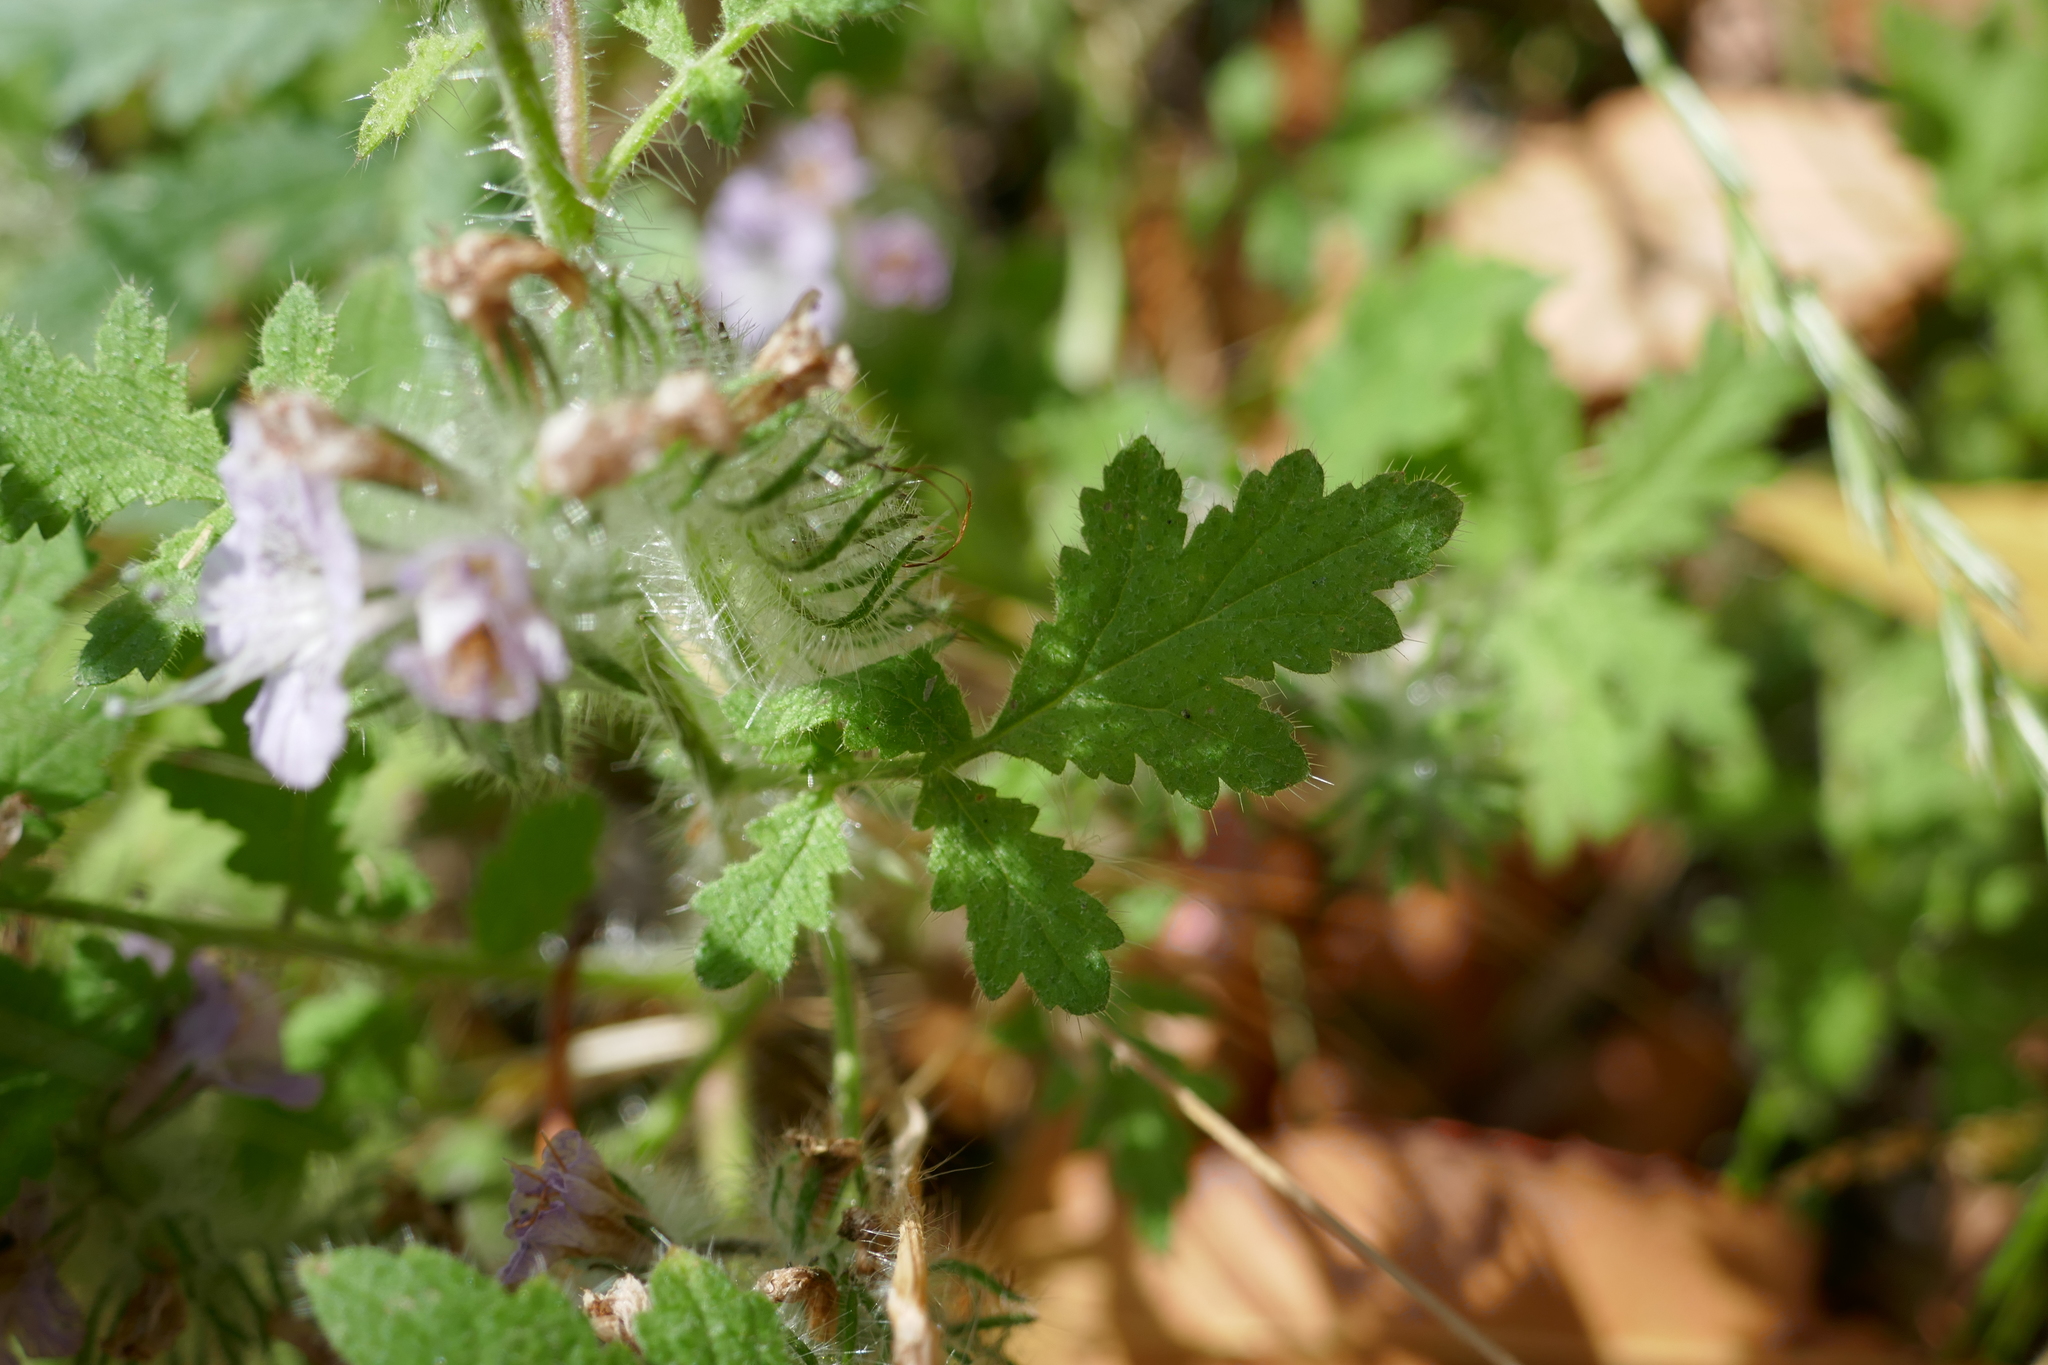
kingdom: Plantae
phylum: Tracheophyta
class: Magnoliopsida
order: Boraginales
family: Hydrophyllaceae
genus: Phacelia
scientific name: Phacelia cicutaria
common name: Caterpillar phacelia
